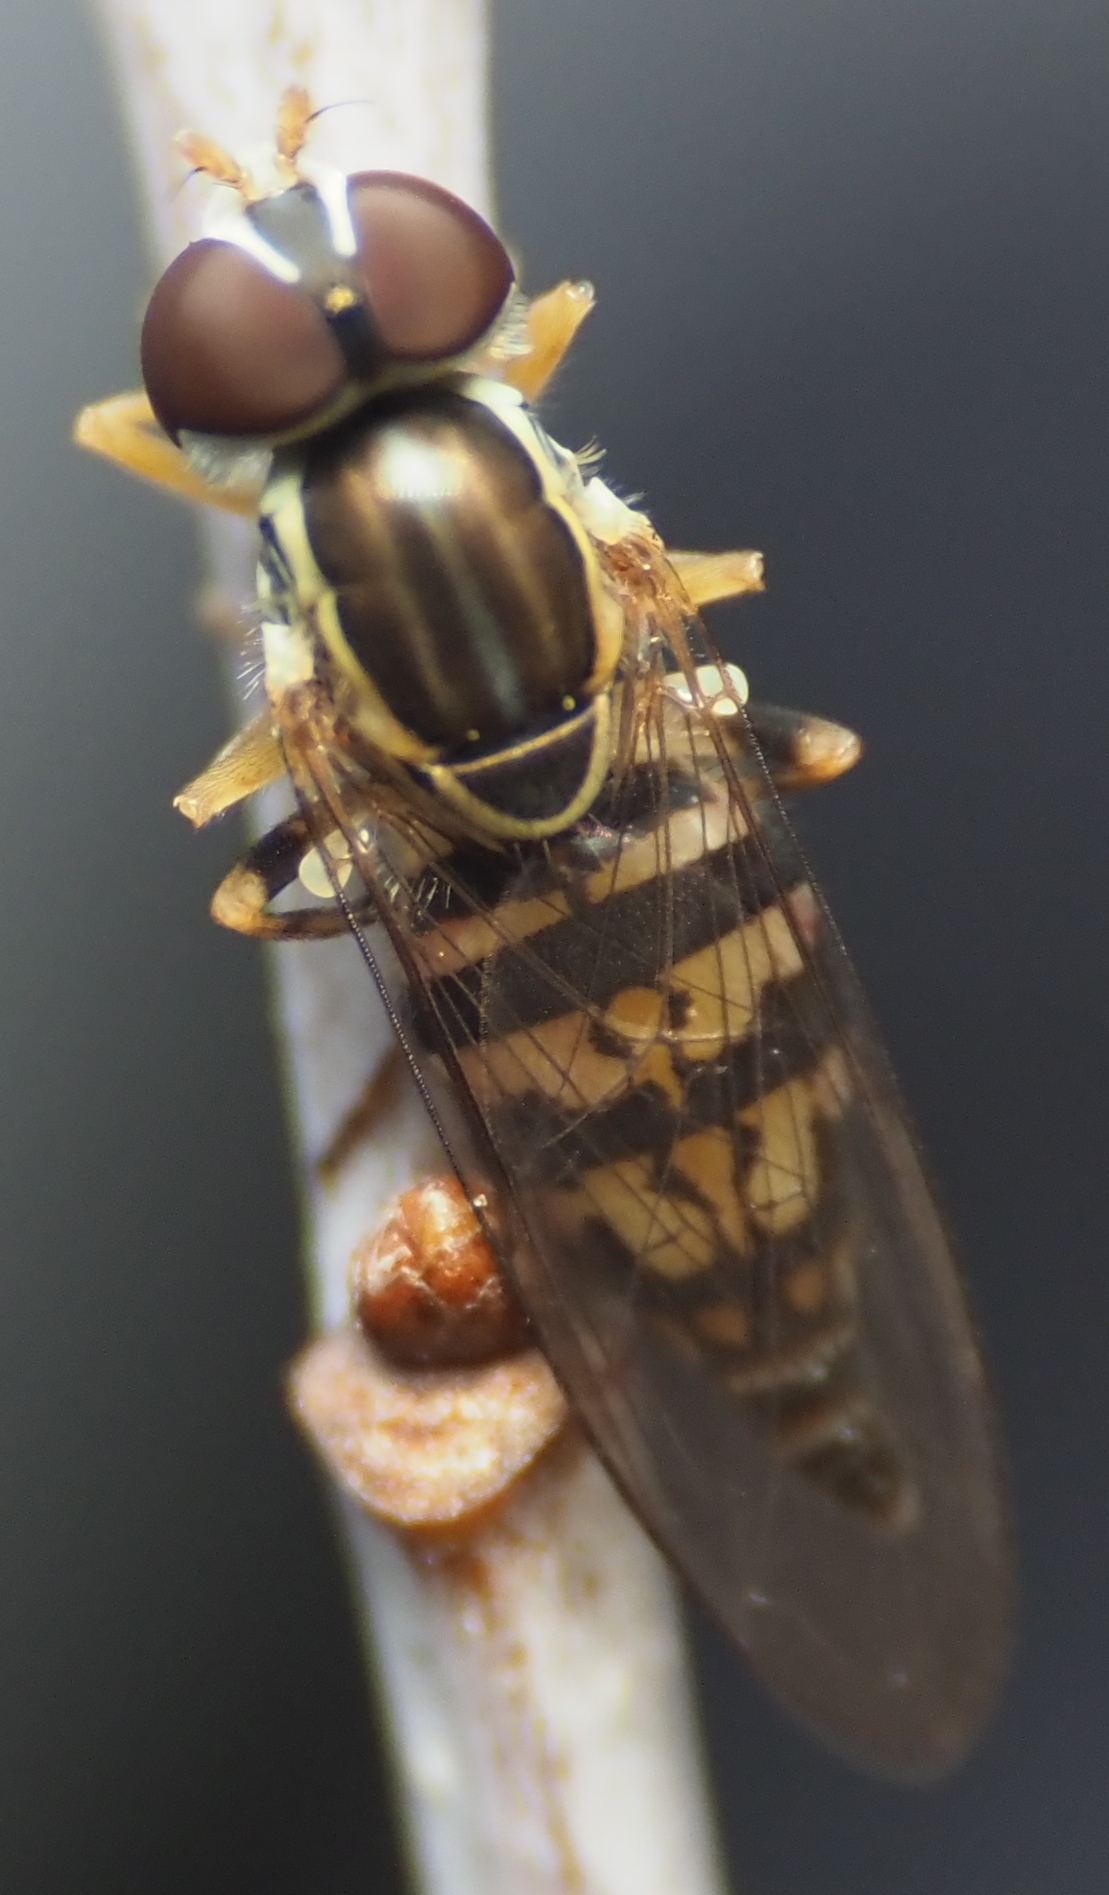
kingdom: Animalia
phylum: Arthropoda
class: Insecta
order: Diptera
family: Syrphidae
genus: Toxomerus
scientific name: Toxomerus geminatus
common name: Eastern calligrapher
